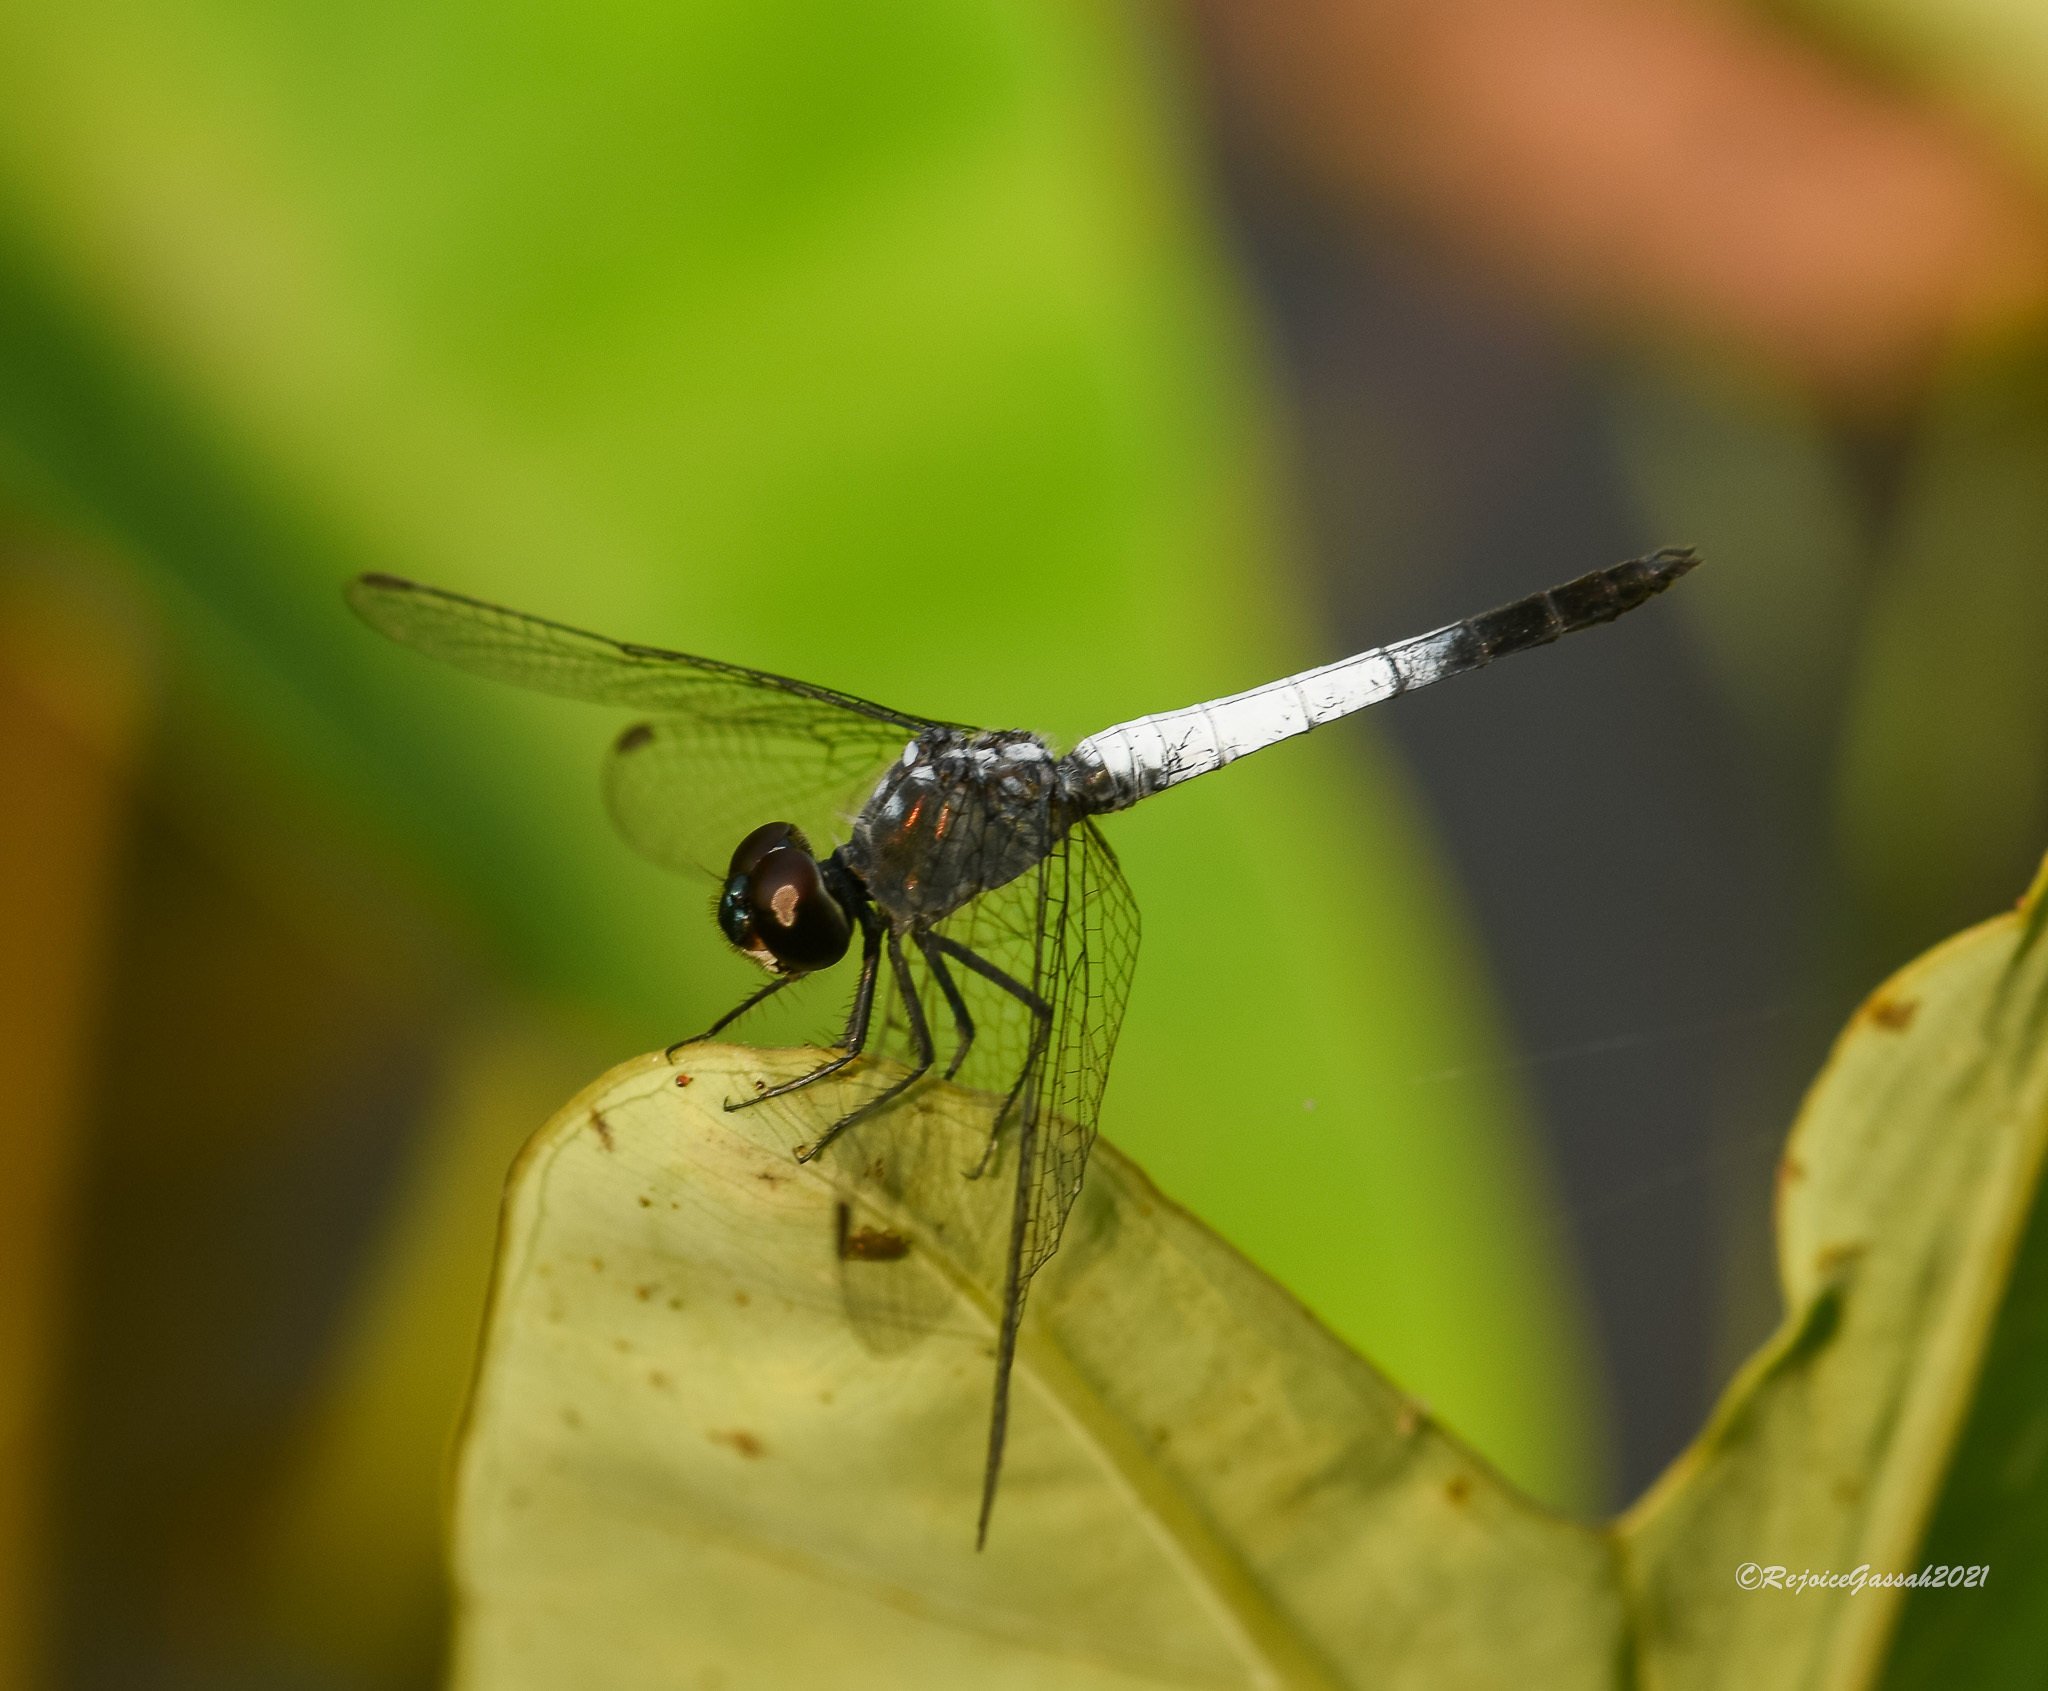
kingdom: Animalia
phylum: Arthropoda
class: Insecta
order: Odonata
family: Libellulidae
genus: Brachydiplax
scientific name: Brachydiplax farinosa
